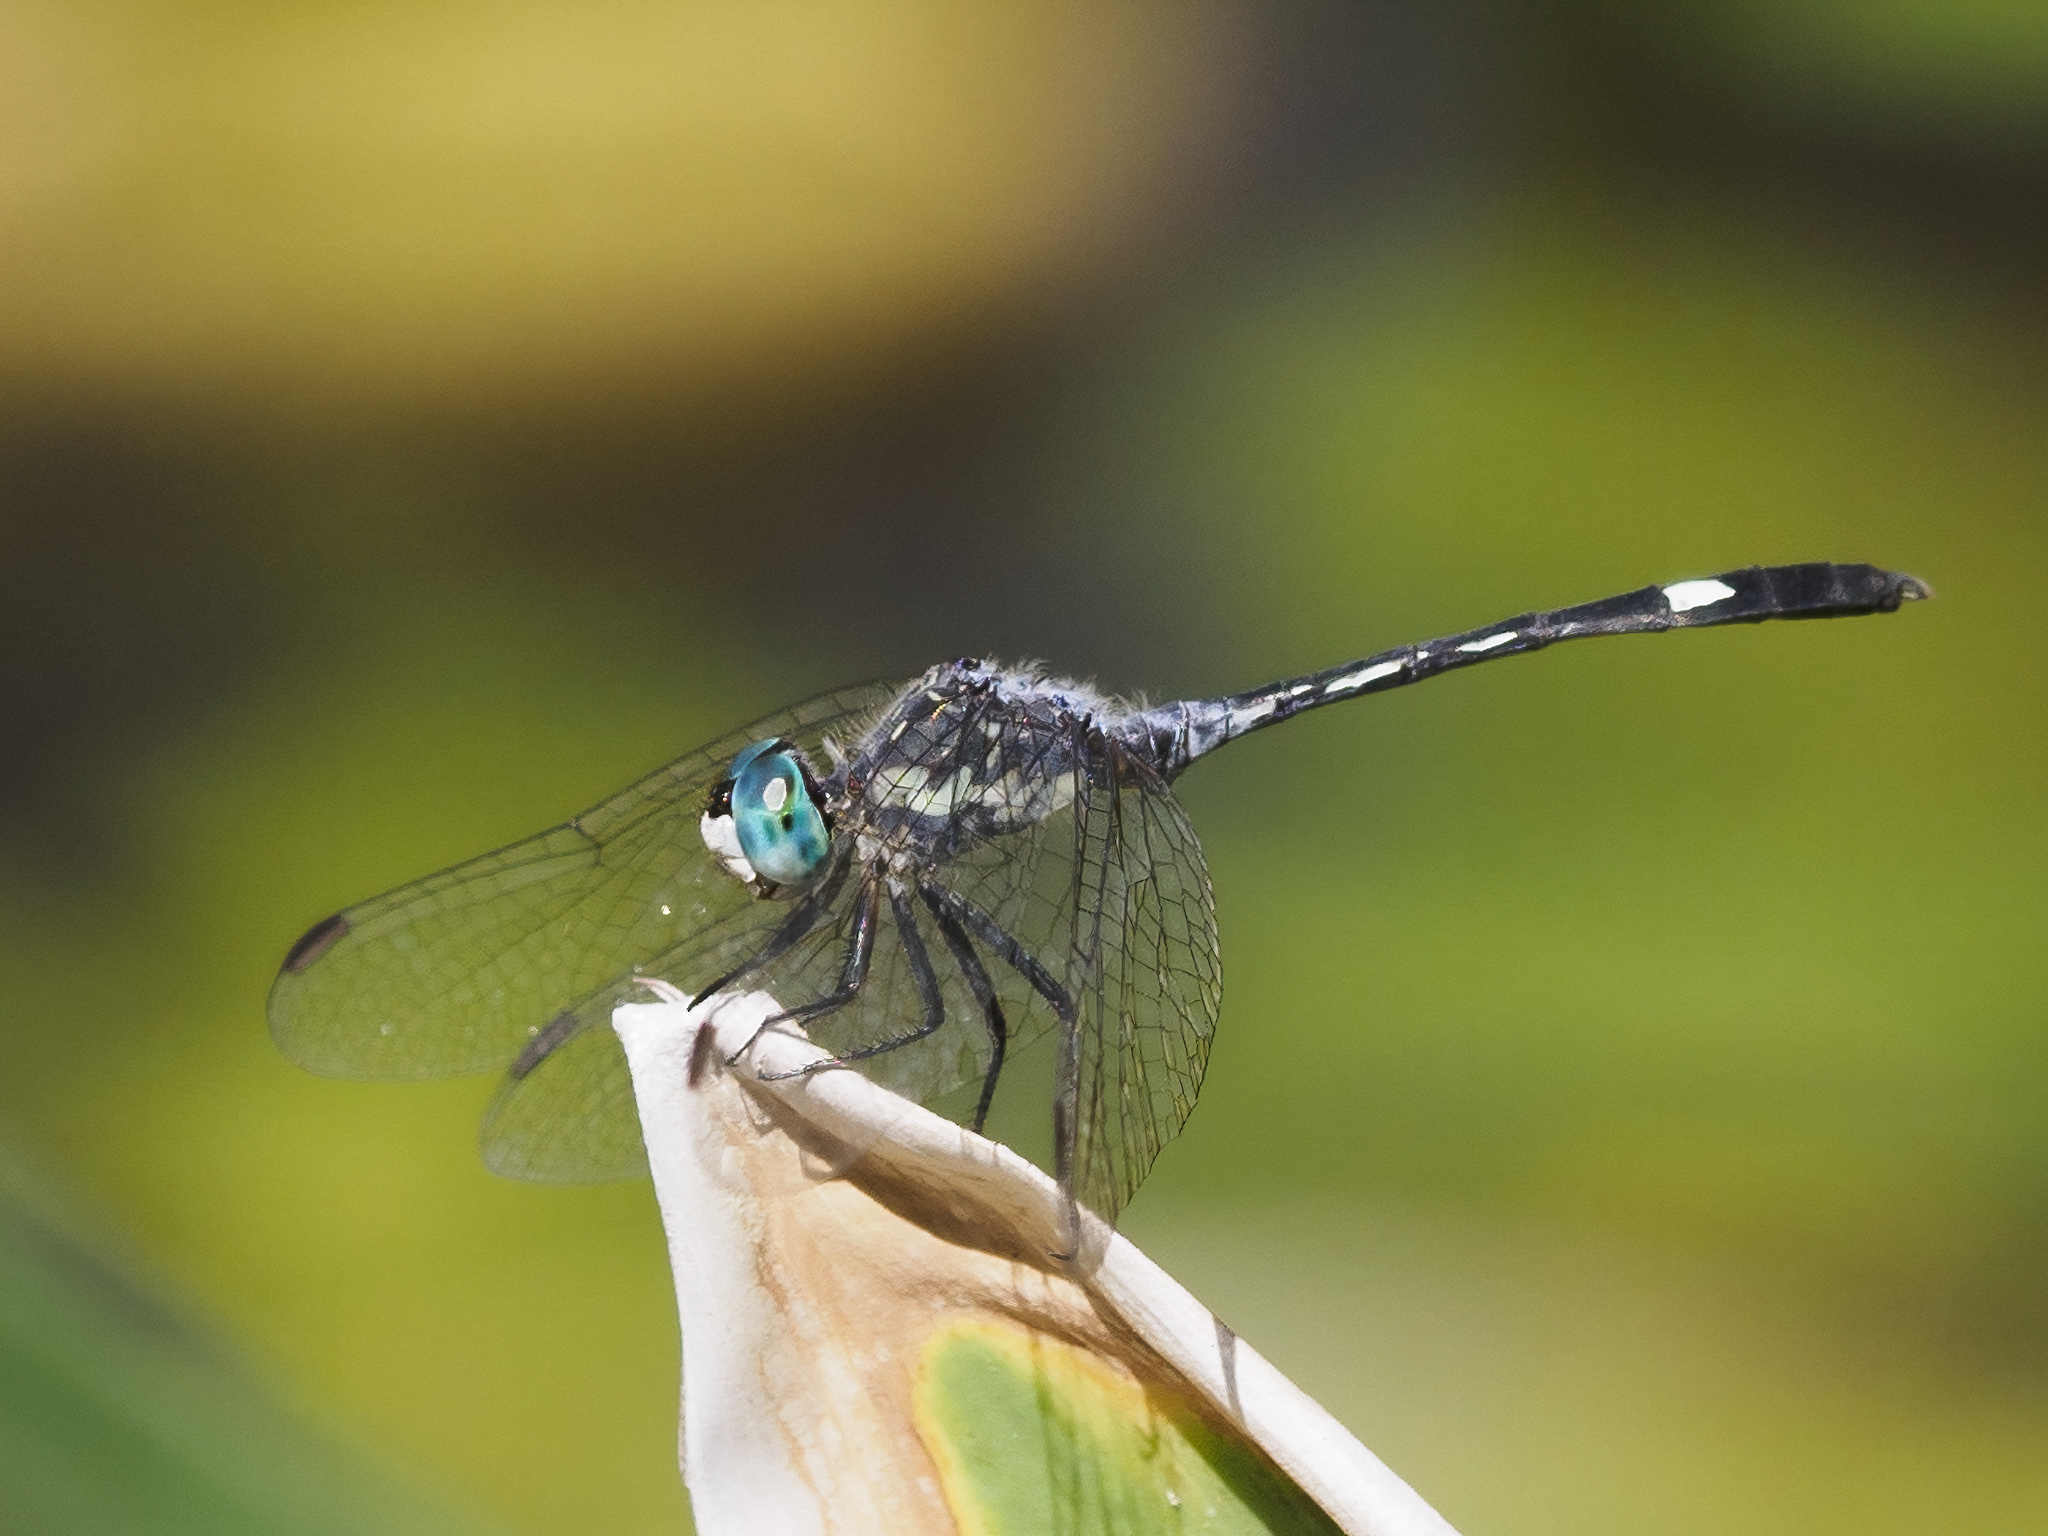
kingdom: Animalia
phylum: Arthropoda
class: Insecta
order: Odonata
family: Libellulidae
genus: Micrathyria
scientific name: Micrathyria longifasciata
